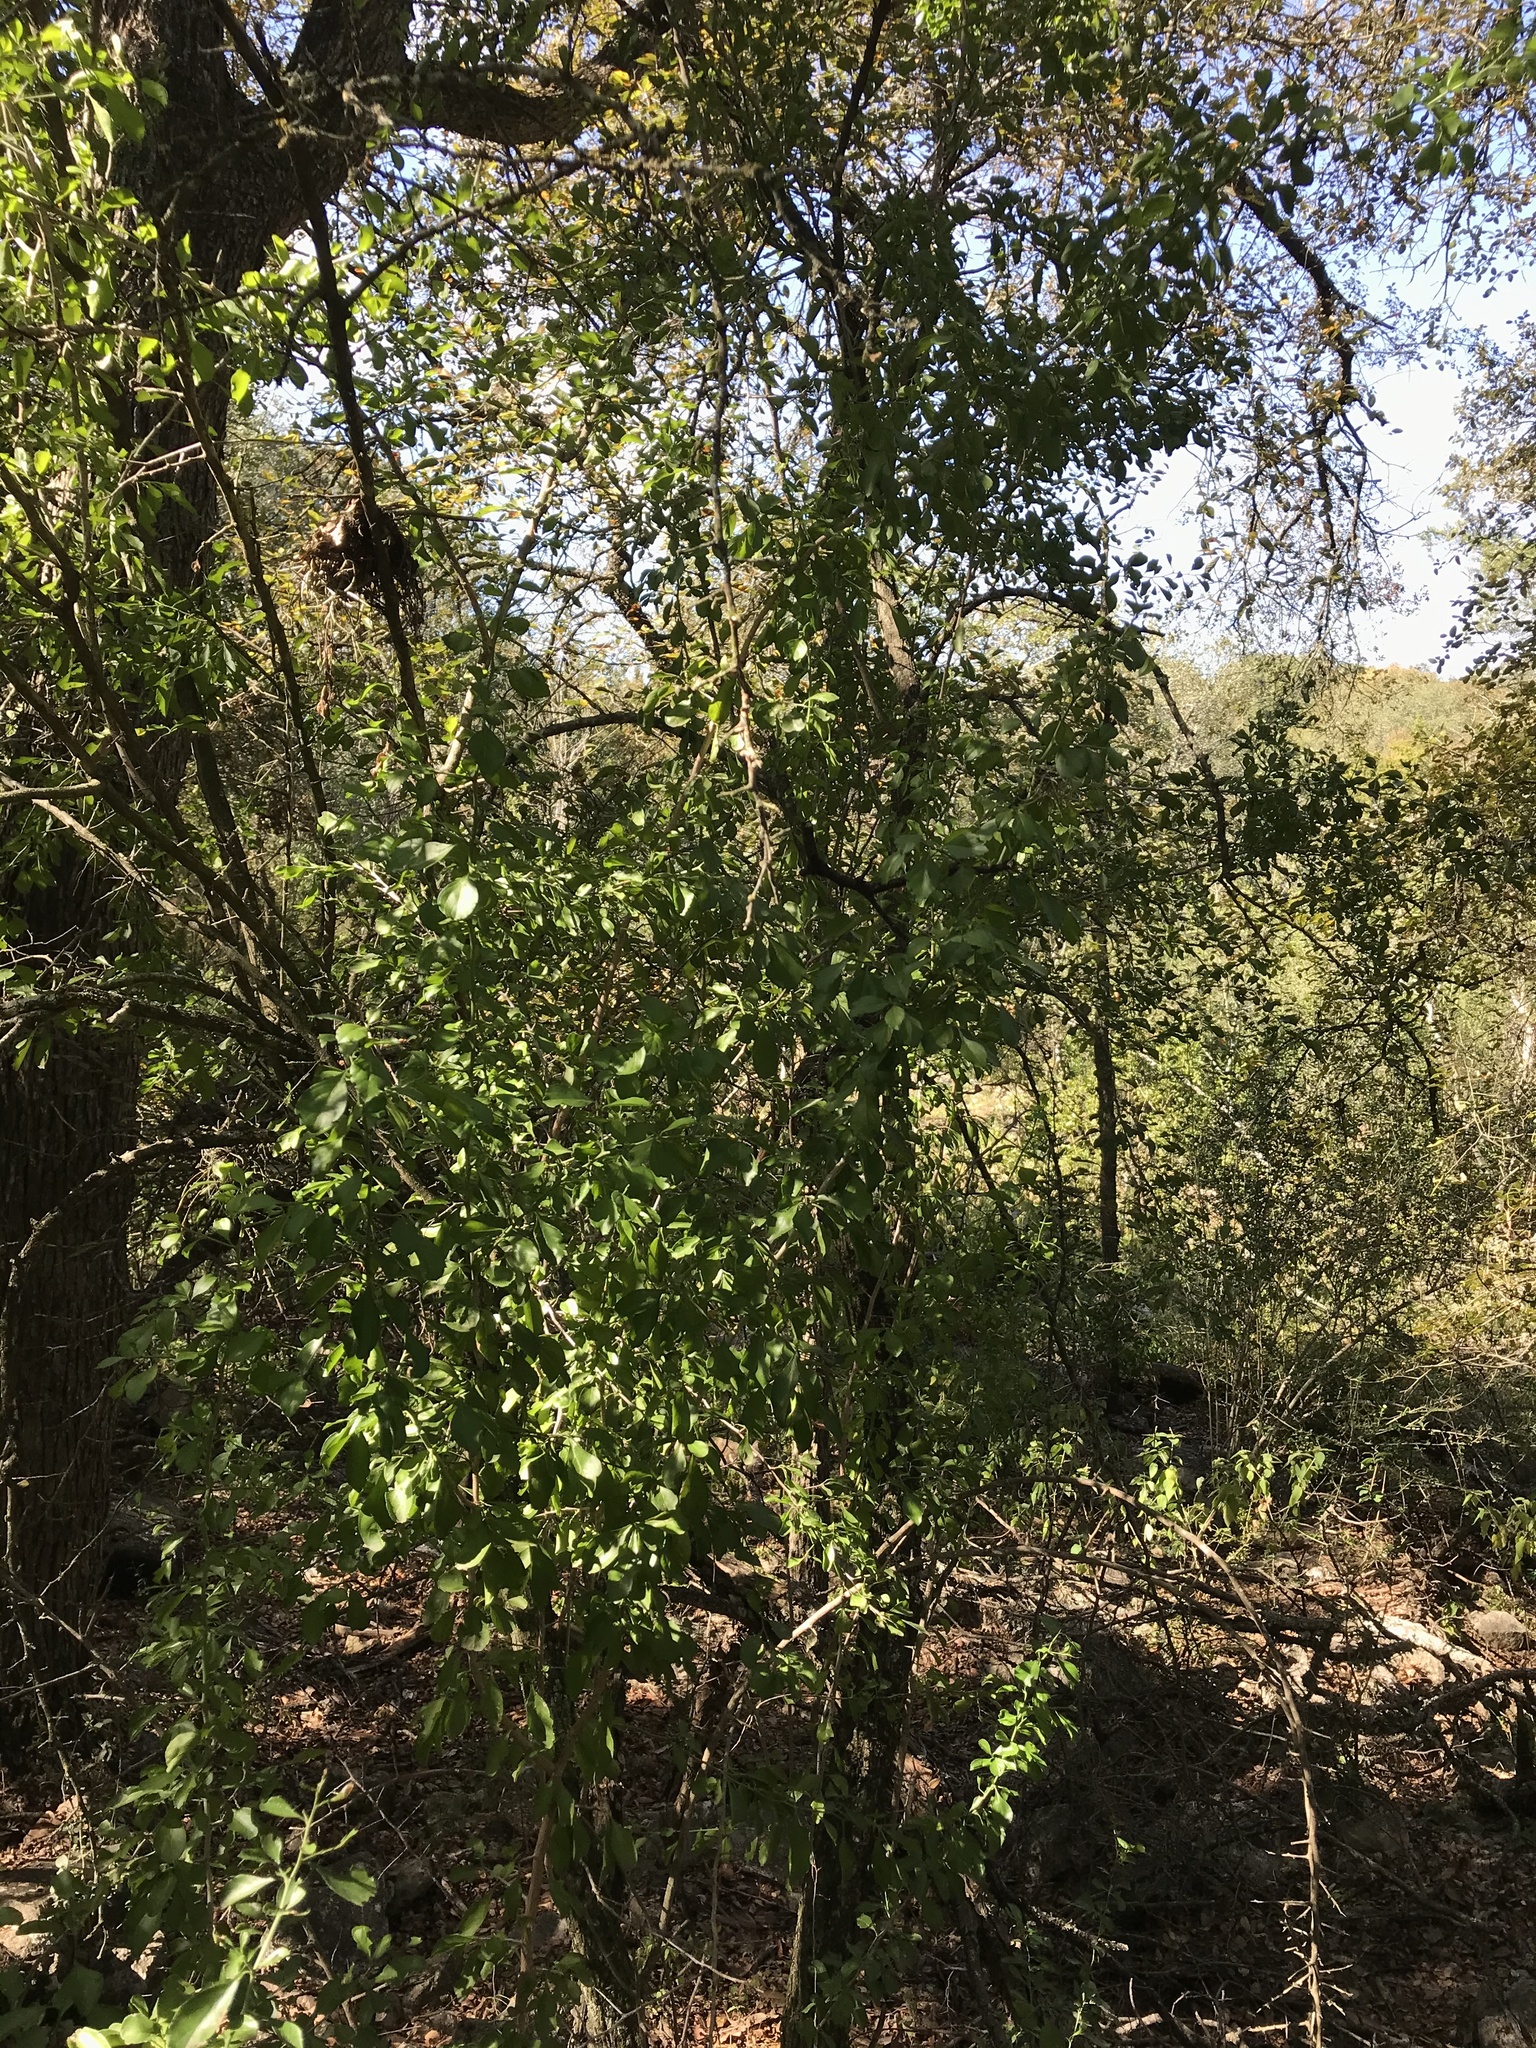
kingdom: Plantae
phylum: Tracheophyta
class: Magnoliopsida
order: Solanales
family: Solanaceae
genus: Solanum
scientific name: Solanum triquetrum
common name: Texas nightshade
